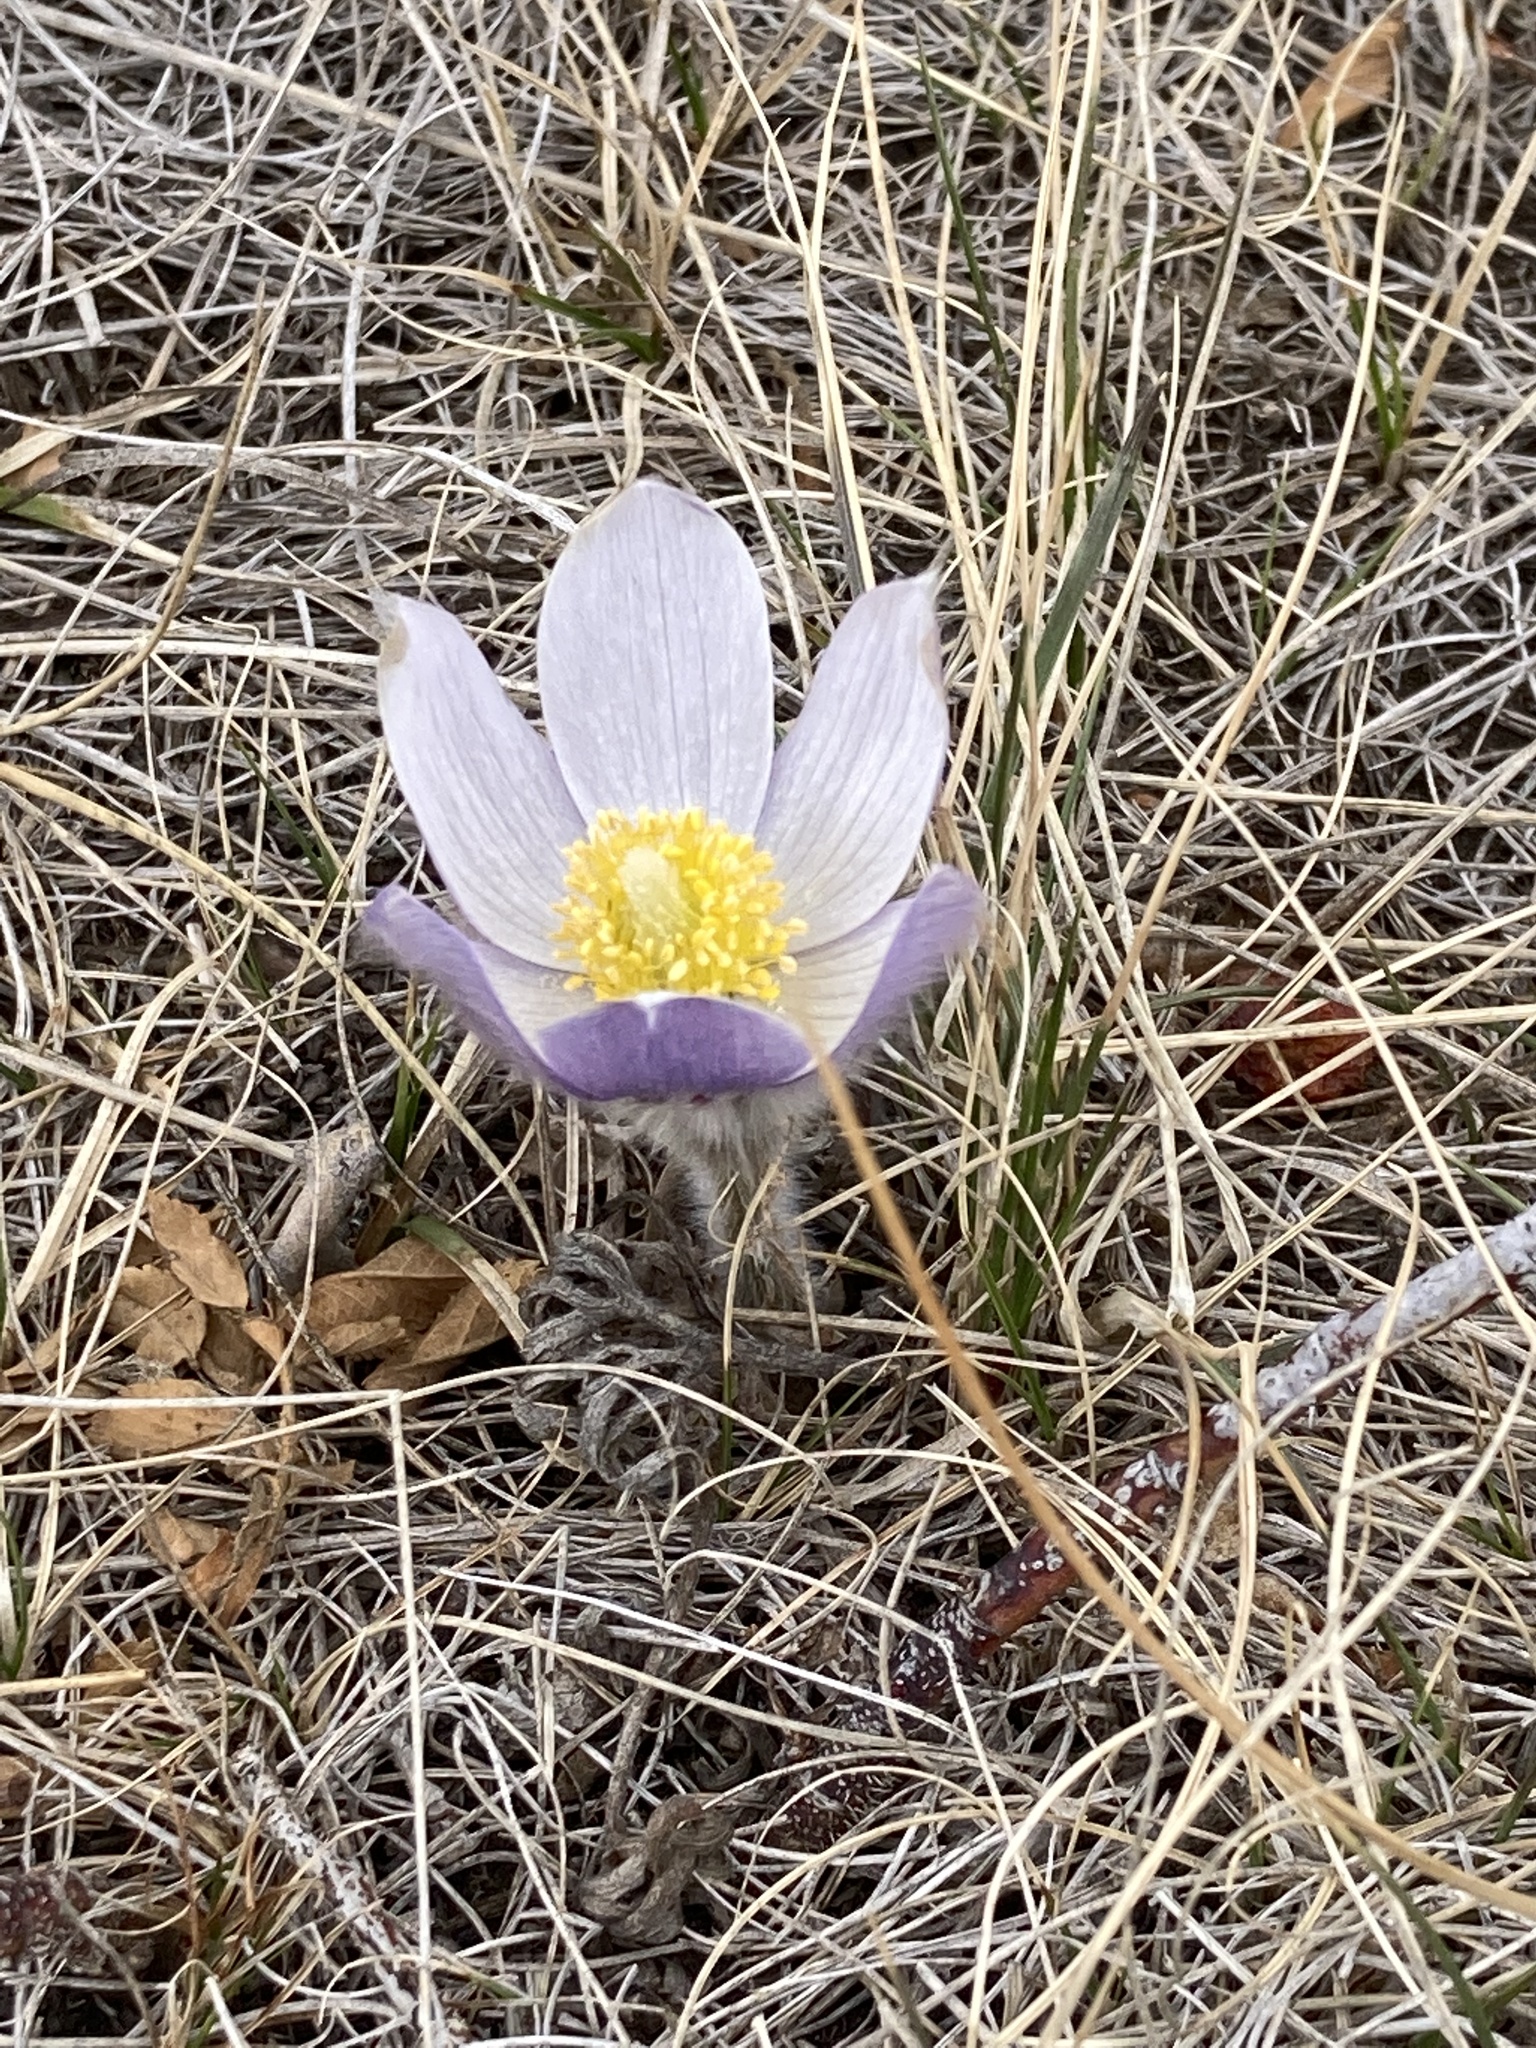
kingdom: Plantae
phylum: Tracheophyta
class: Magnoliopsida
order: Ranunculales
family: Ranunculaceae
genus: Pulsatilla
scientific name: Pulsatilla nuttalliana
